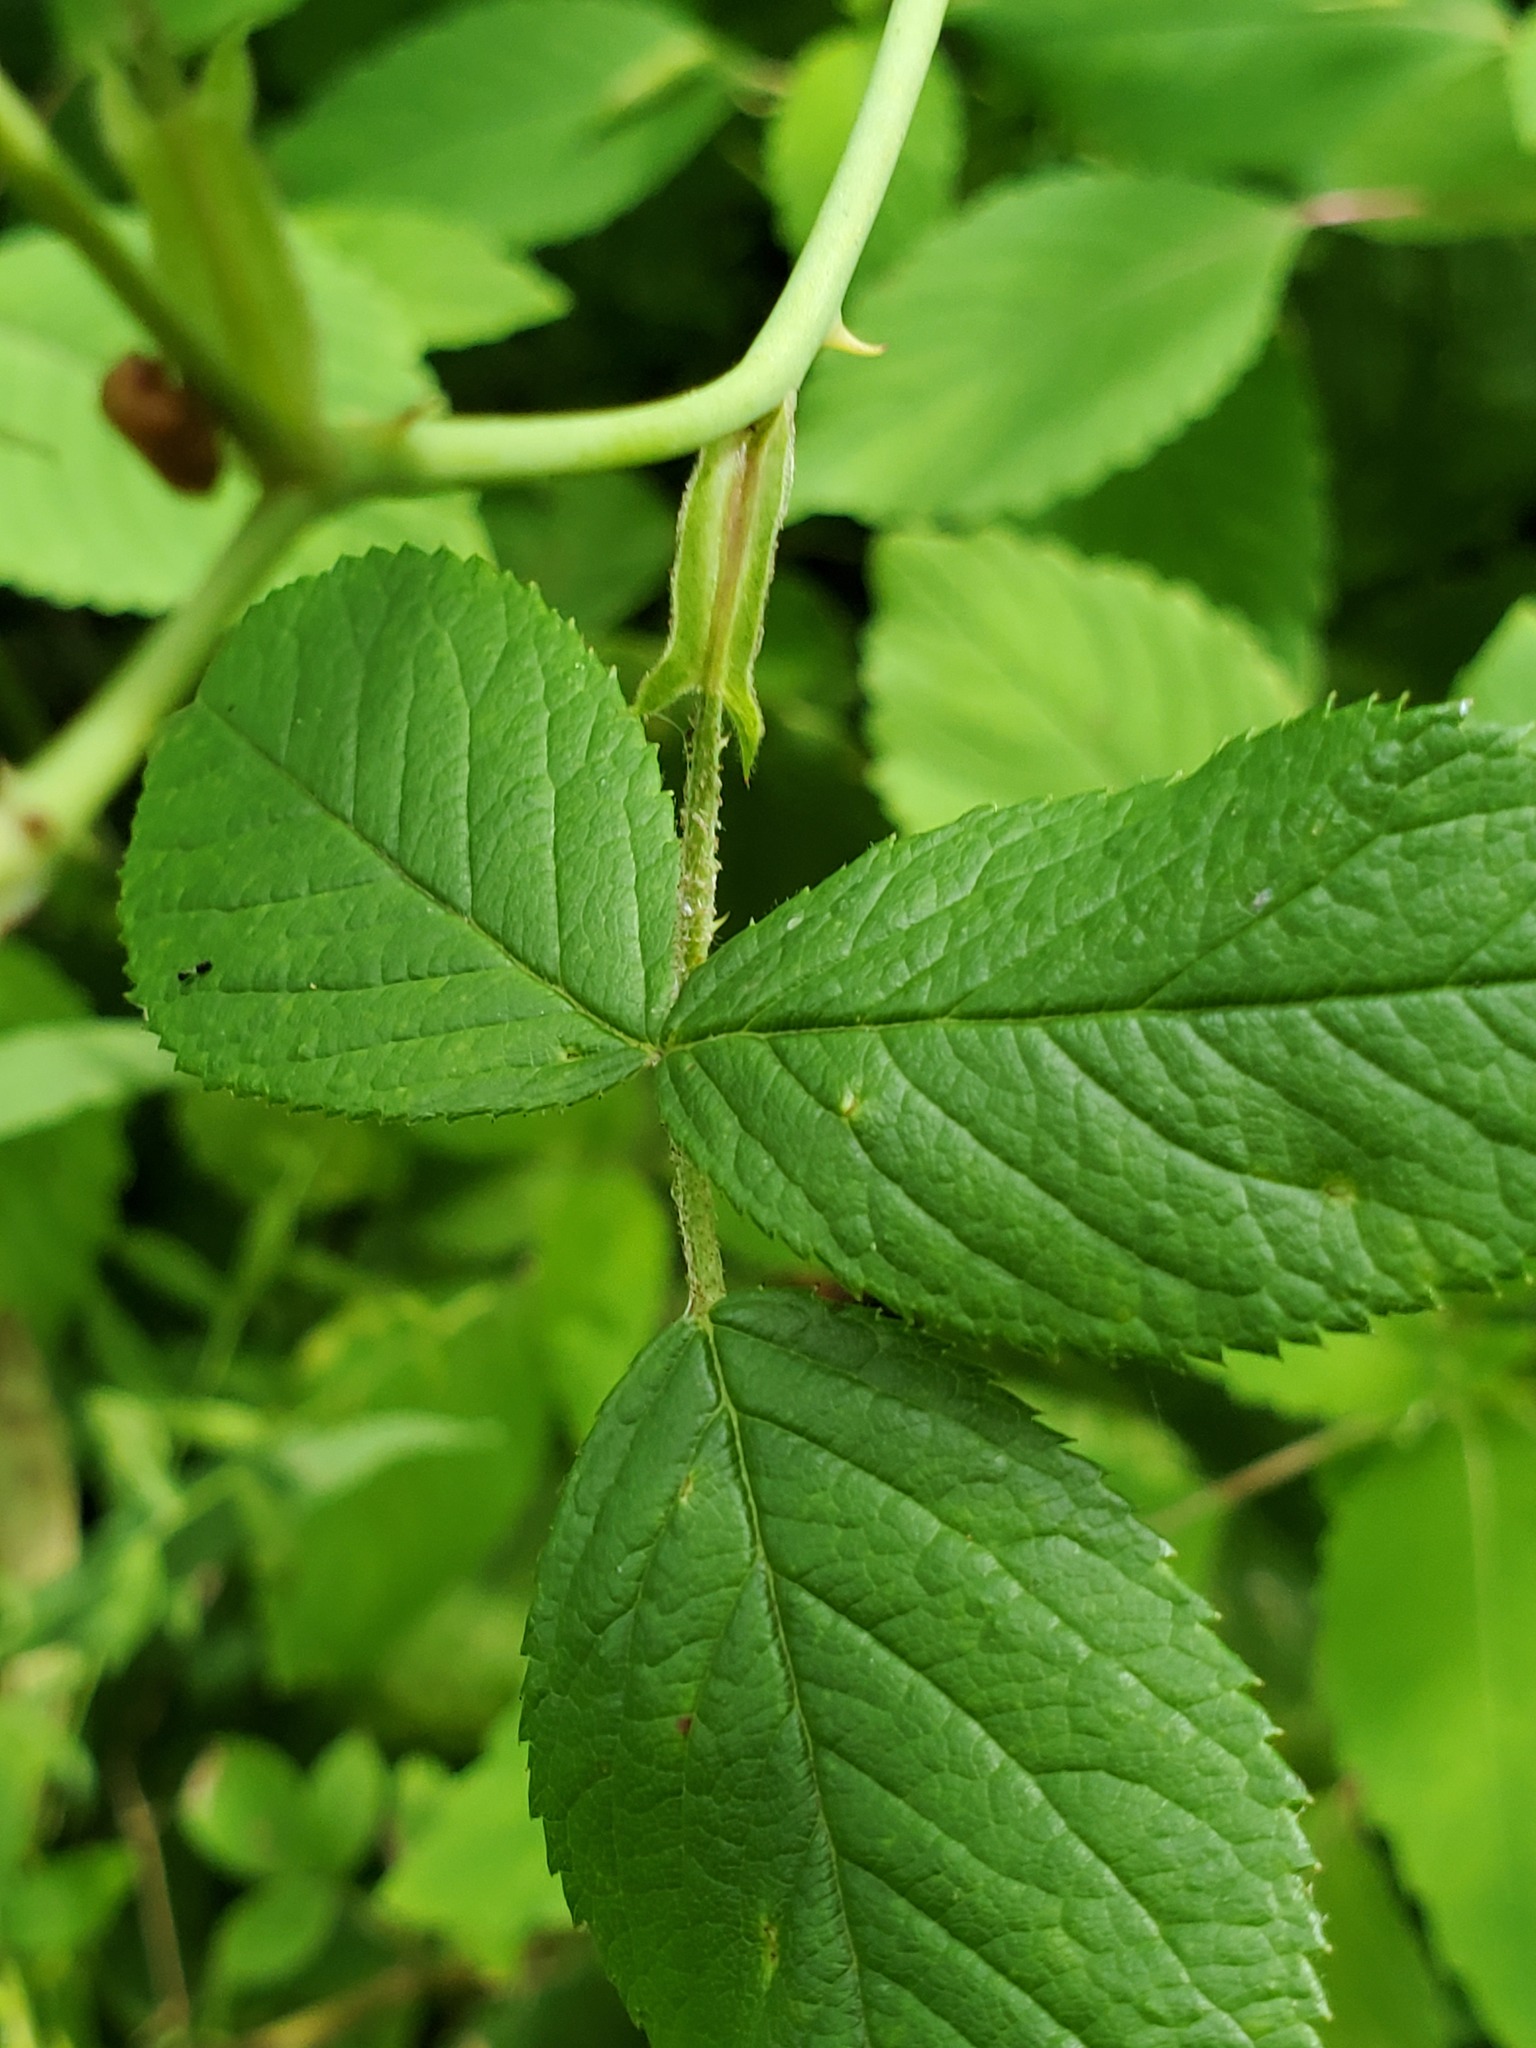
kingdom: Plantae
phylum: Tracheophyta
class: Magnoliopsida
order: Rosales
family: Rosaceae
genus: Rosa
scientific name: Rosa setigera
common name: Prairie rose
